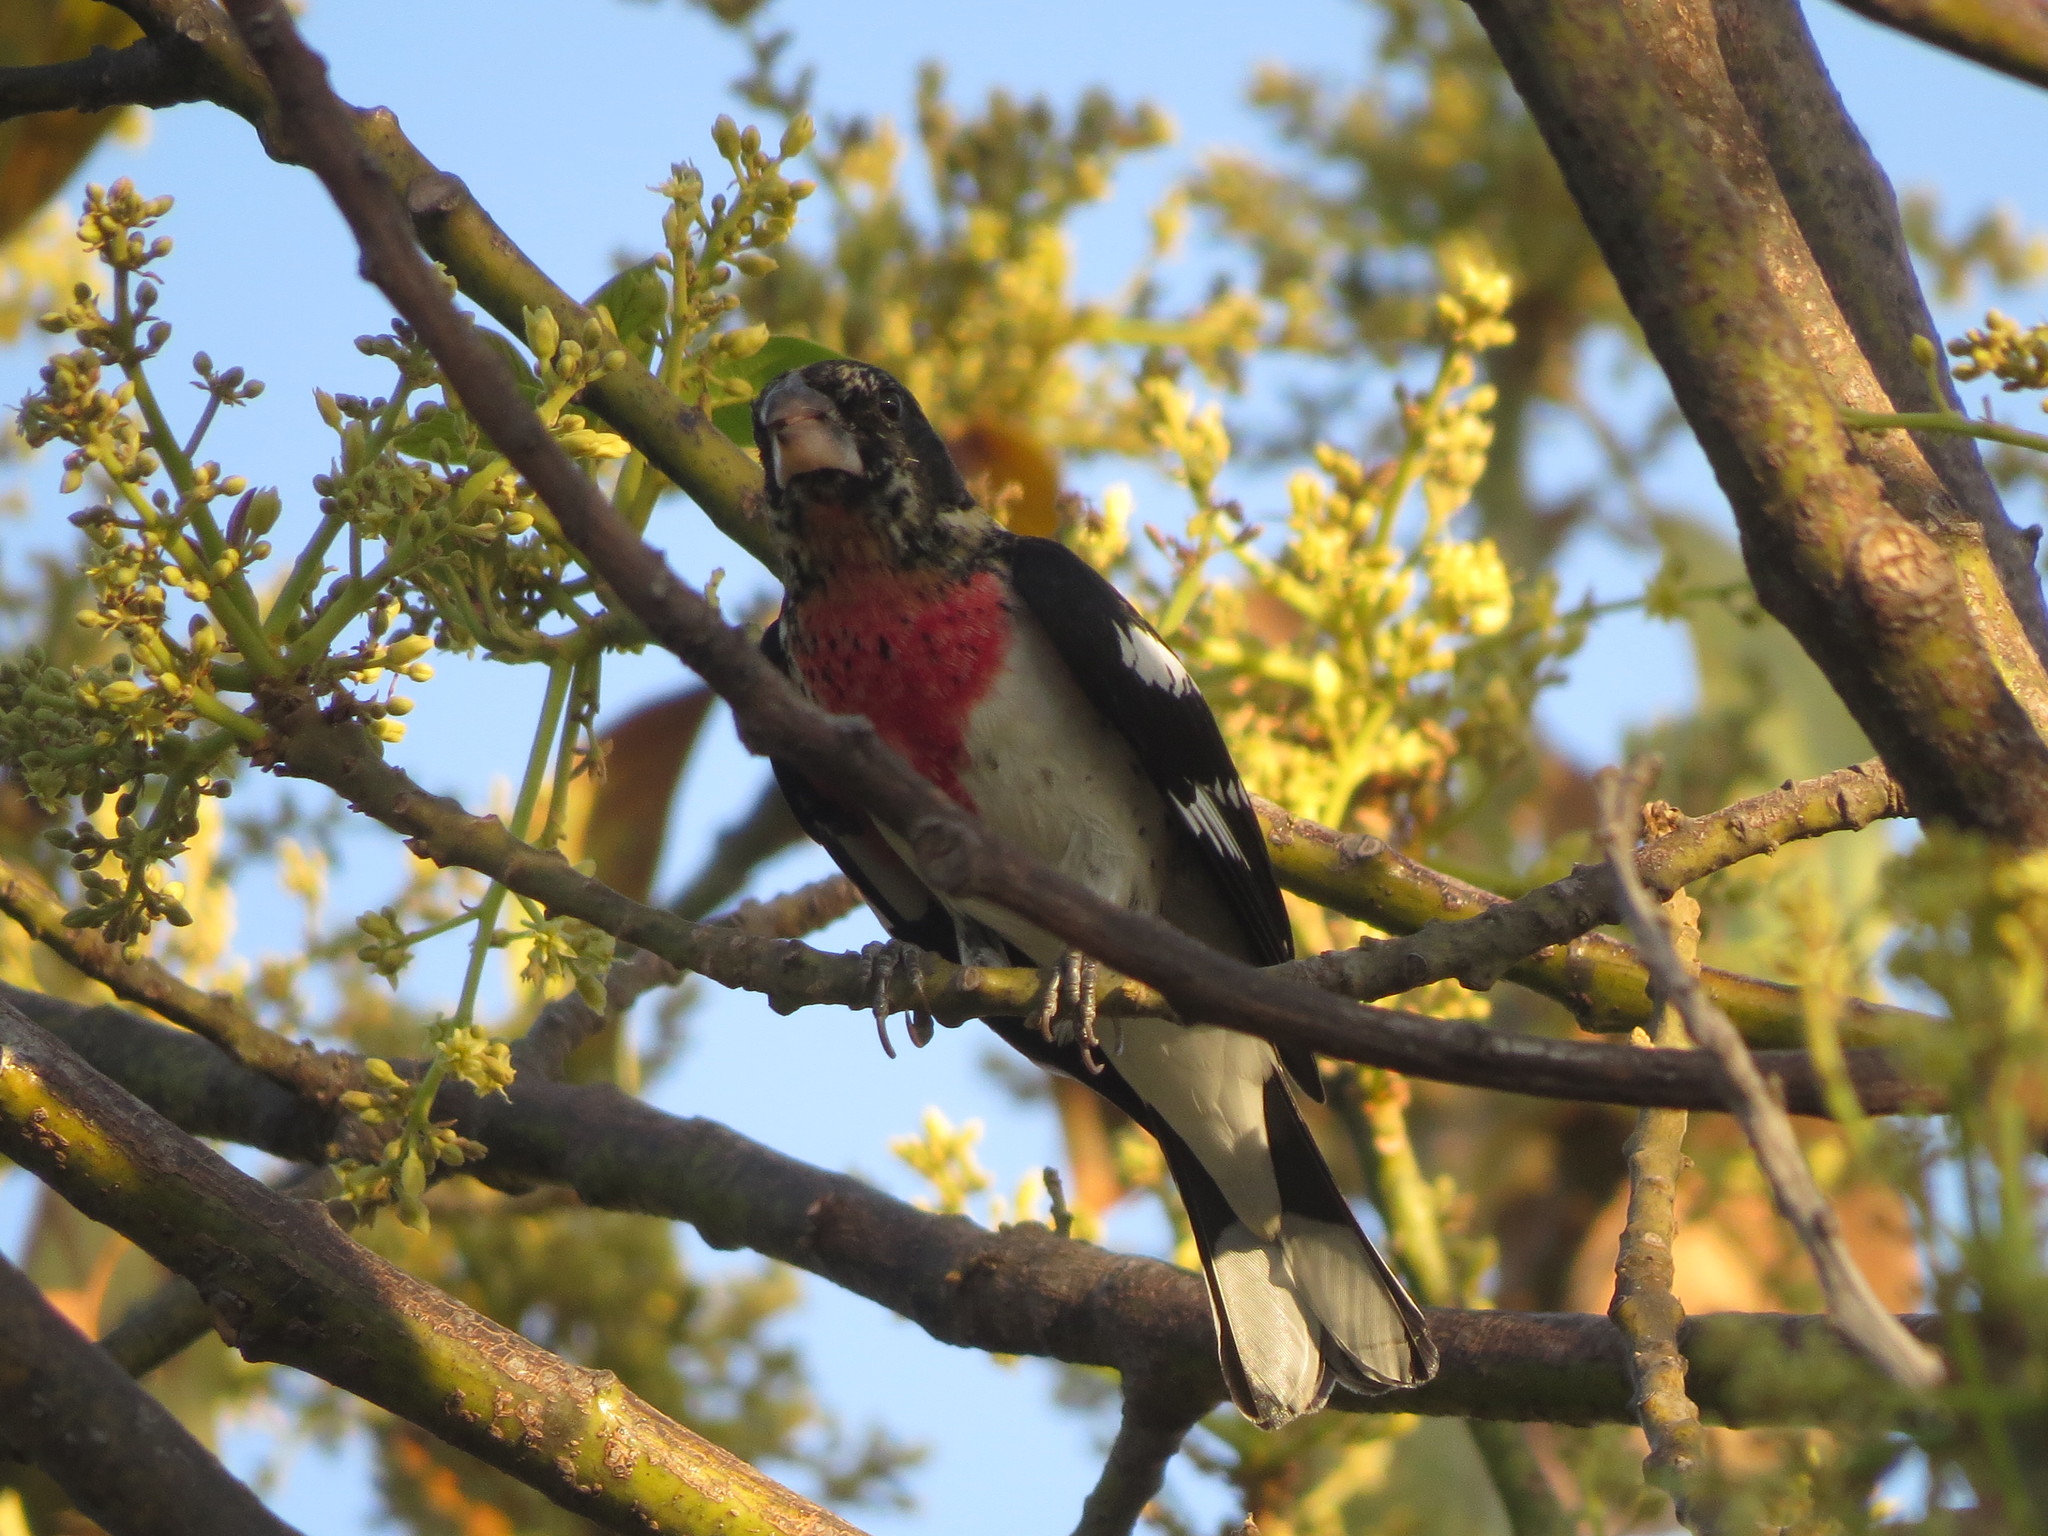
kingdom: Animalia
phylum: Chordata
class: Aves
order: Passeriformes
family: Cardinalidae
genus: Pheucticus
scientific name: Pheucticus ludovicianus
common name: Rose-breasted grosbeak
